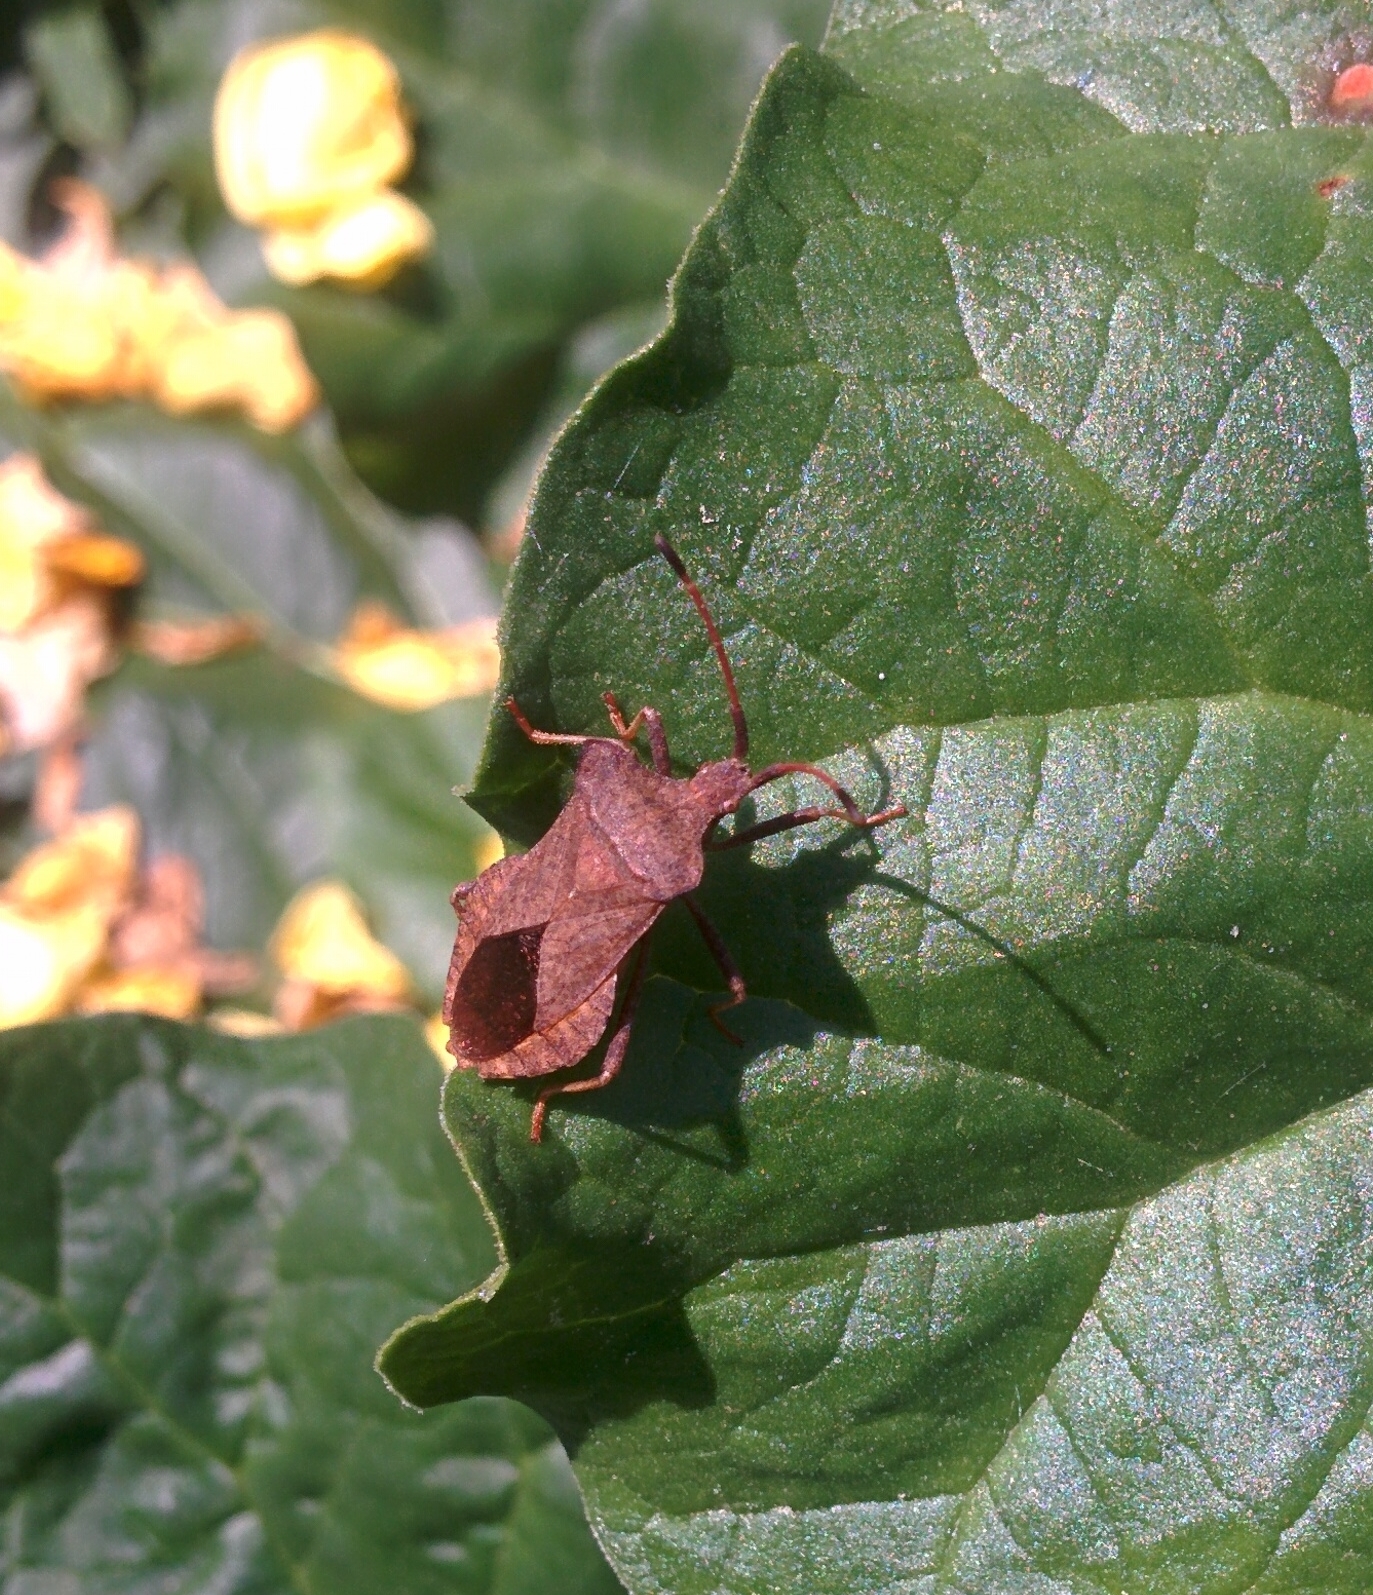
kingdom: Animalia
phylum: Arthropoda
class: Insecta
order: Hemiptera
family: Coreidae
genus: Coreus
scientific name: Coreus marginatus
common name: Dock bug
